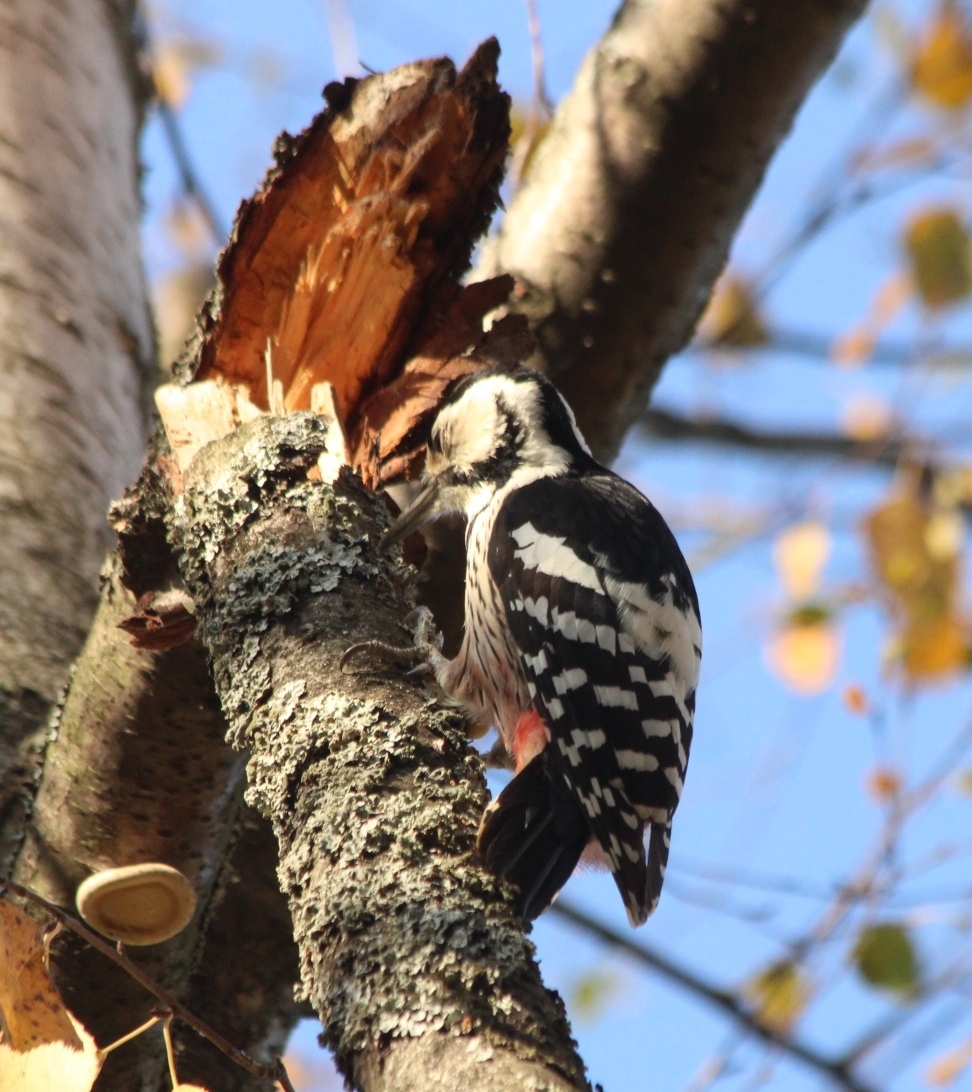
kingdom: Animalia
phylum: Chordata
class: Aves
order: Piciformes
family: Picidae
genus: Dendrocopos
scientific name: Dendrocopos leucotos
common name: White-backed woodpecker
